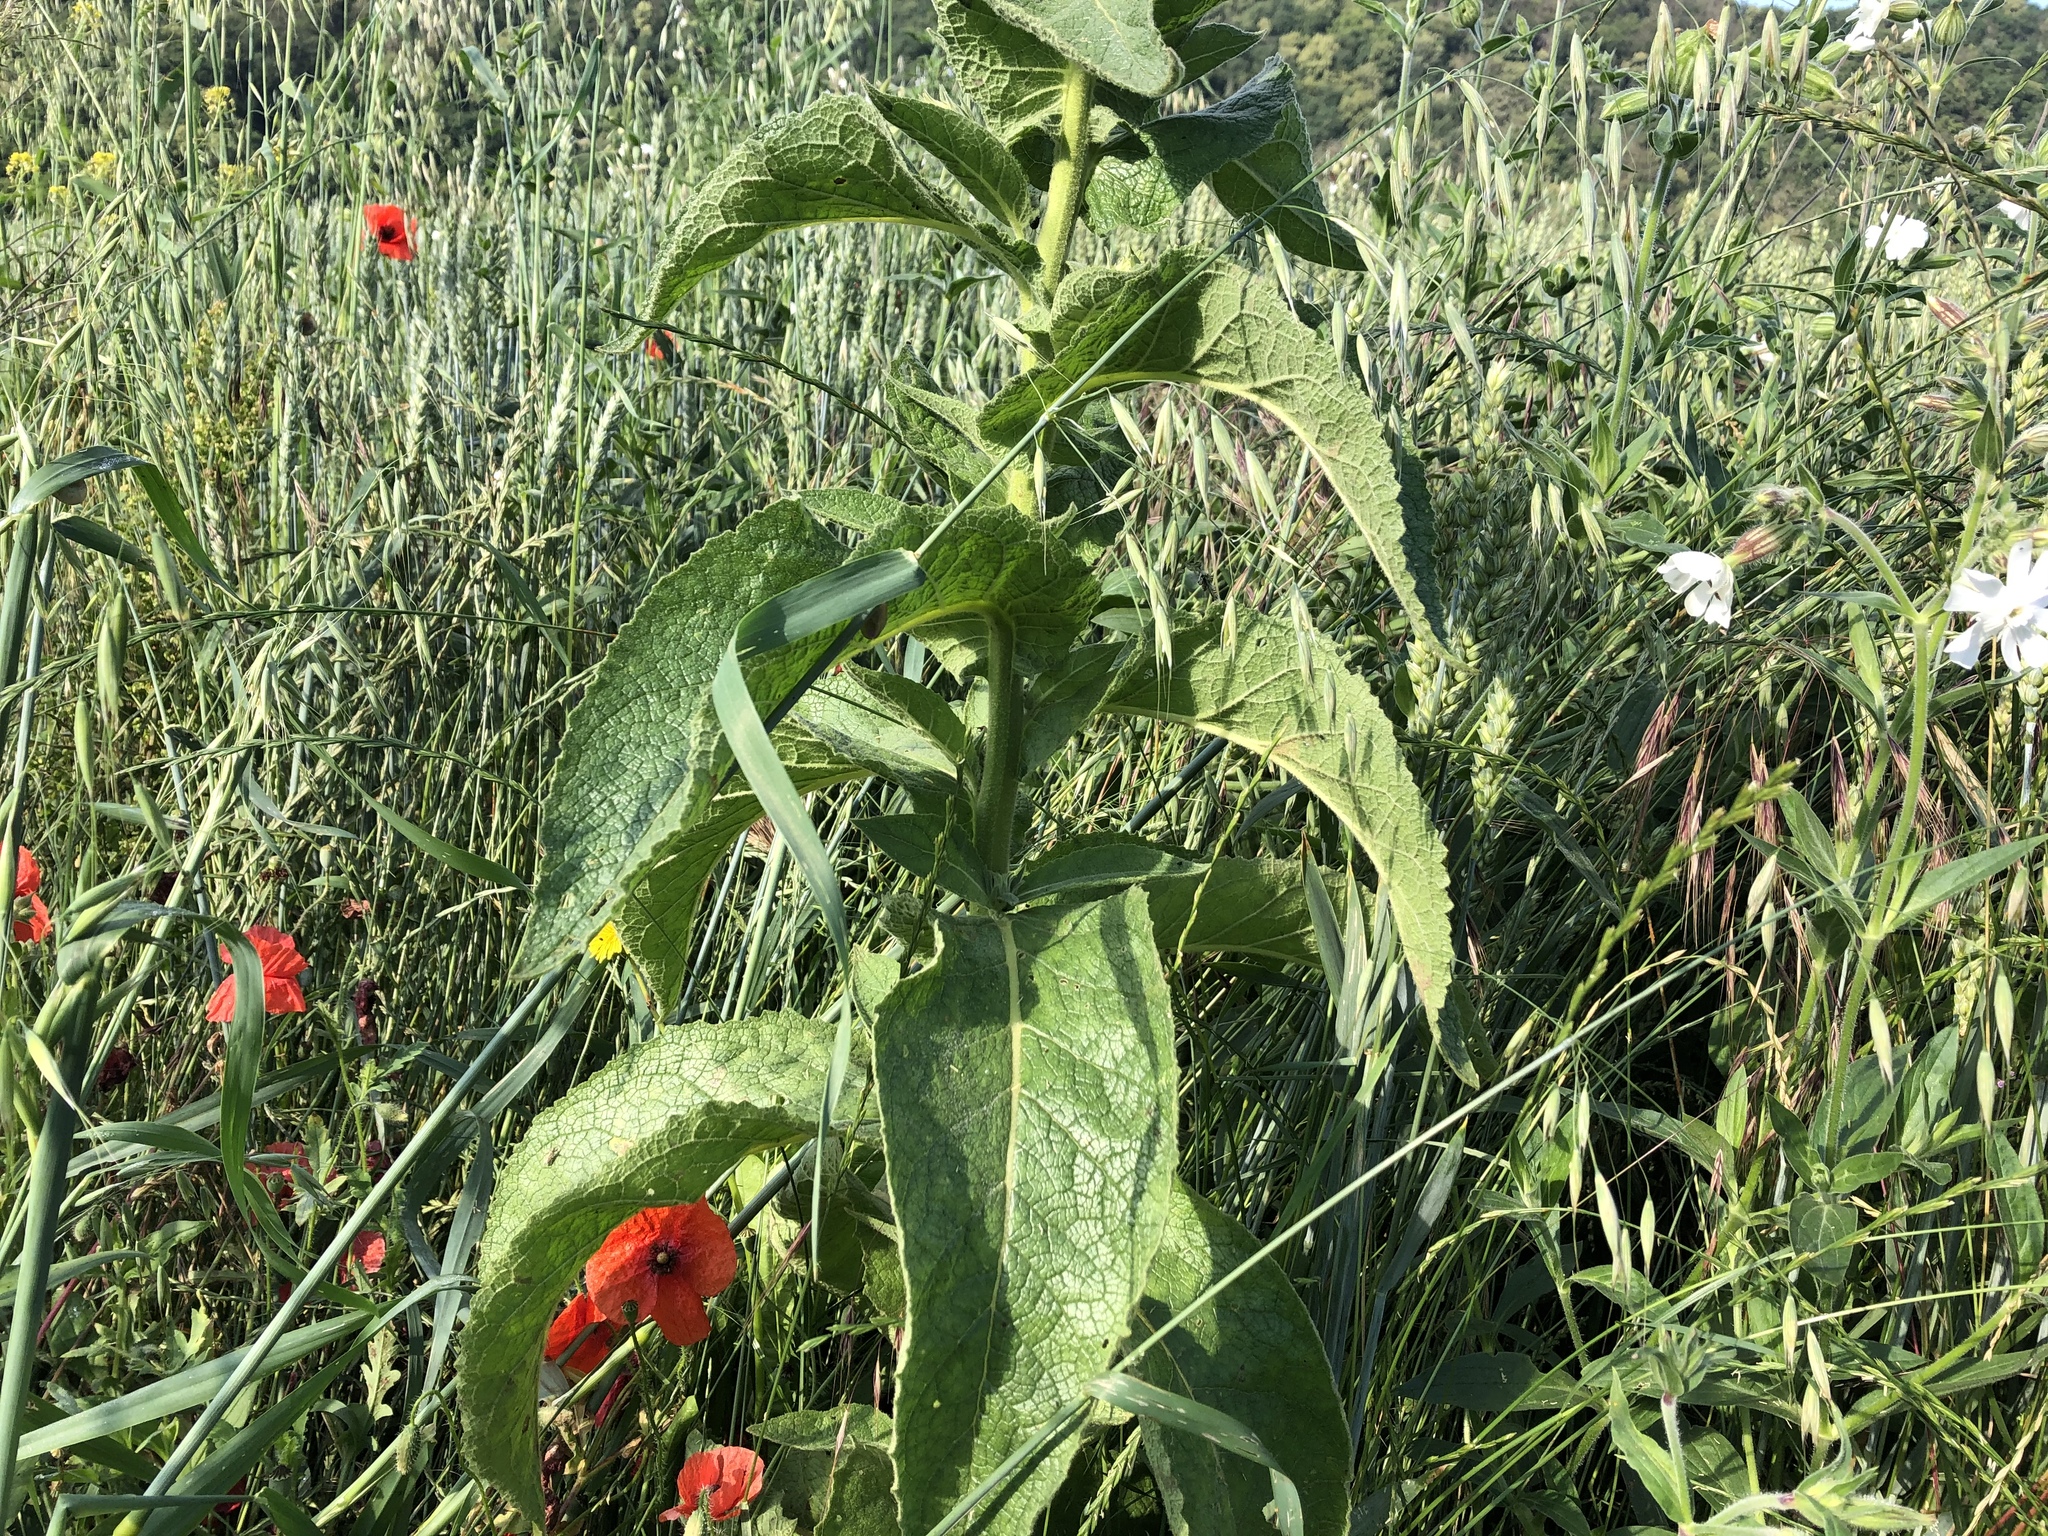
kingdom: Plantae
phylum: Tracheophyta
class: Magnoliopsida
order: Lamiales
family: Scrophulariaceae
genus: Verbascum
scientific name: Verbascum phlomoides
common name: Orange mullein
